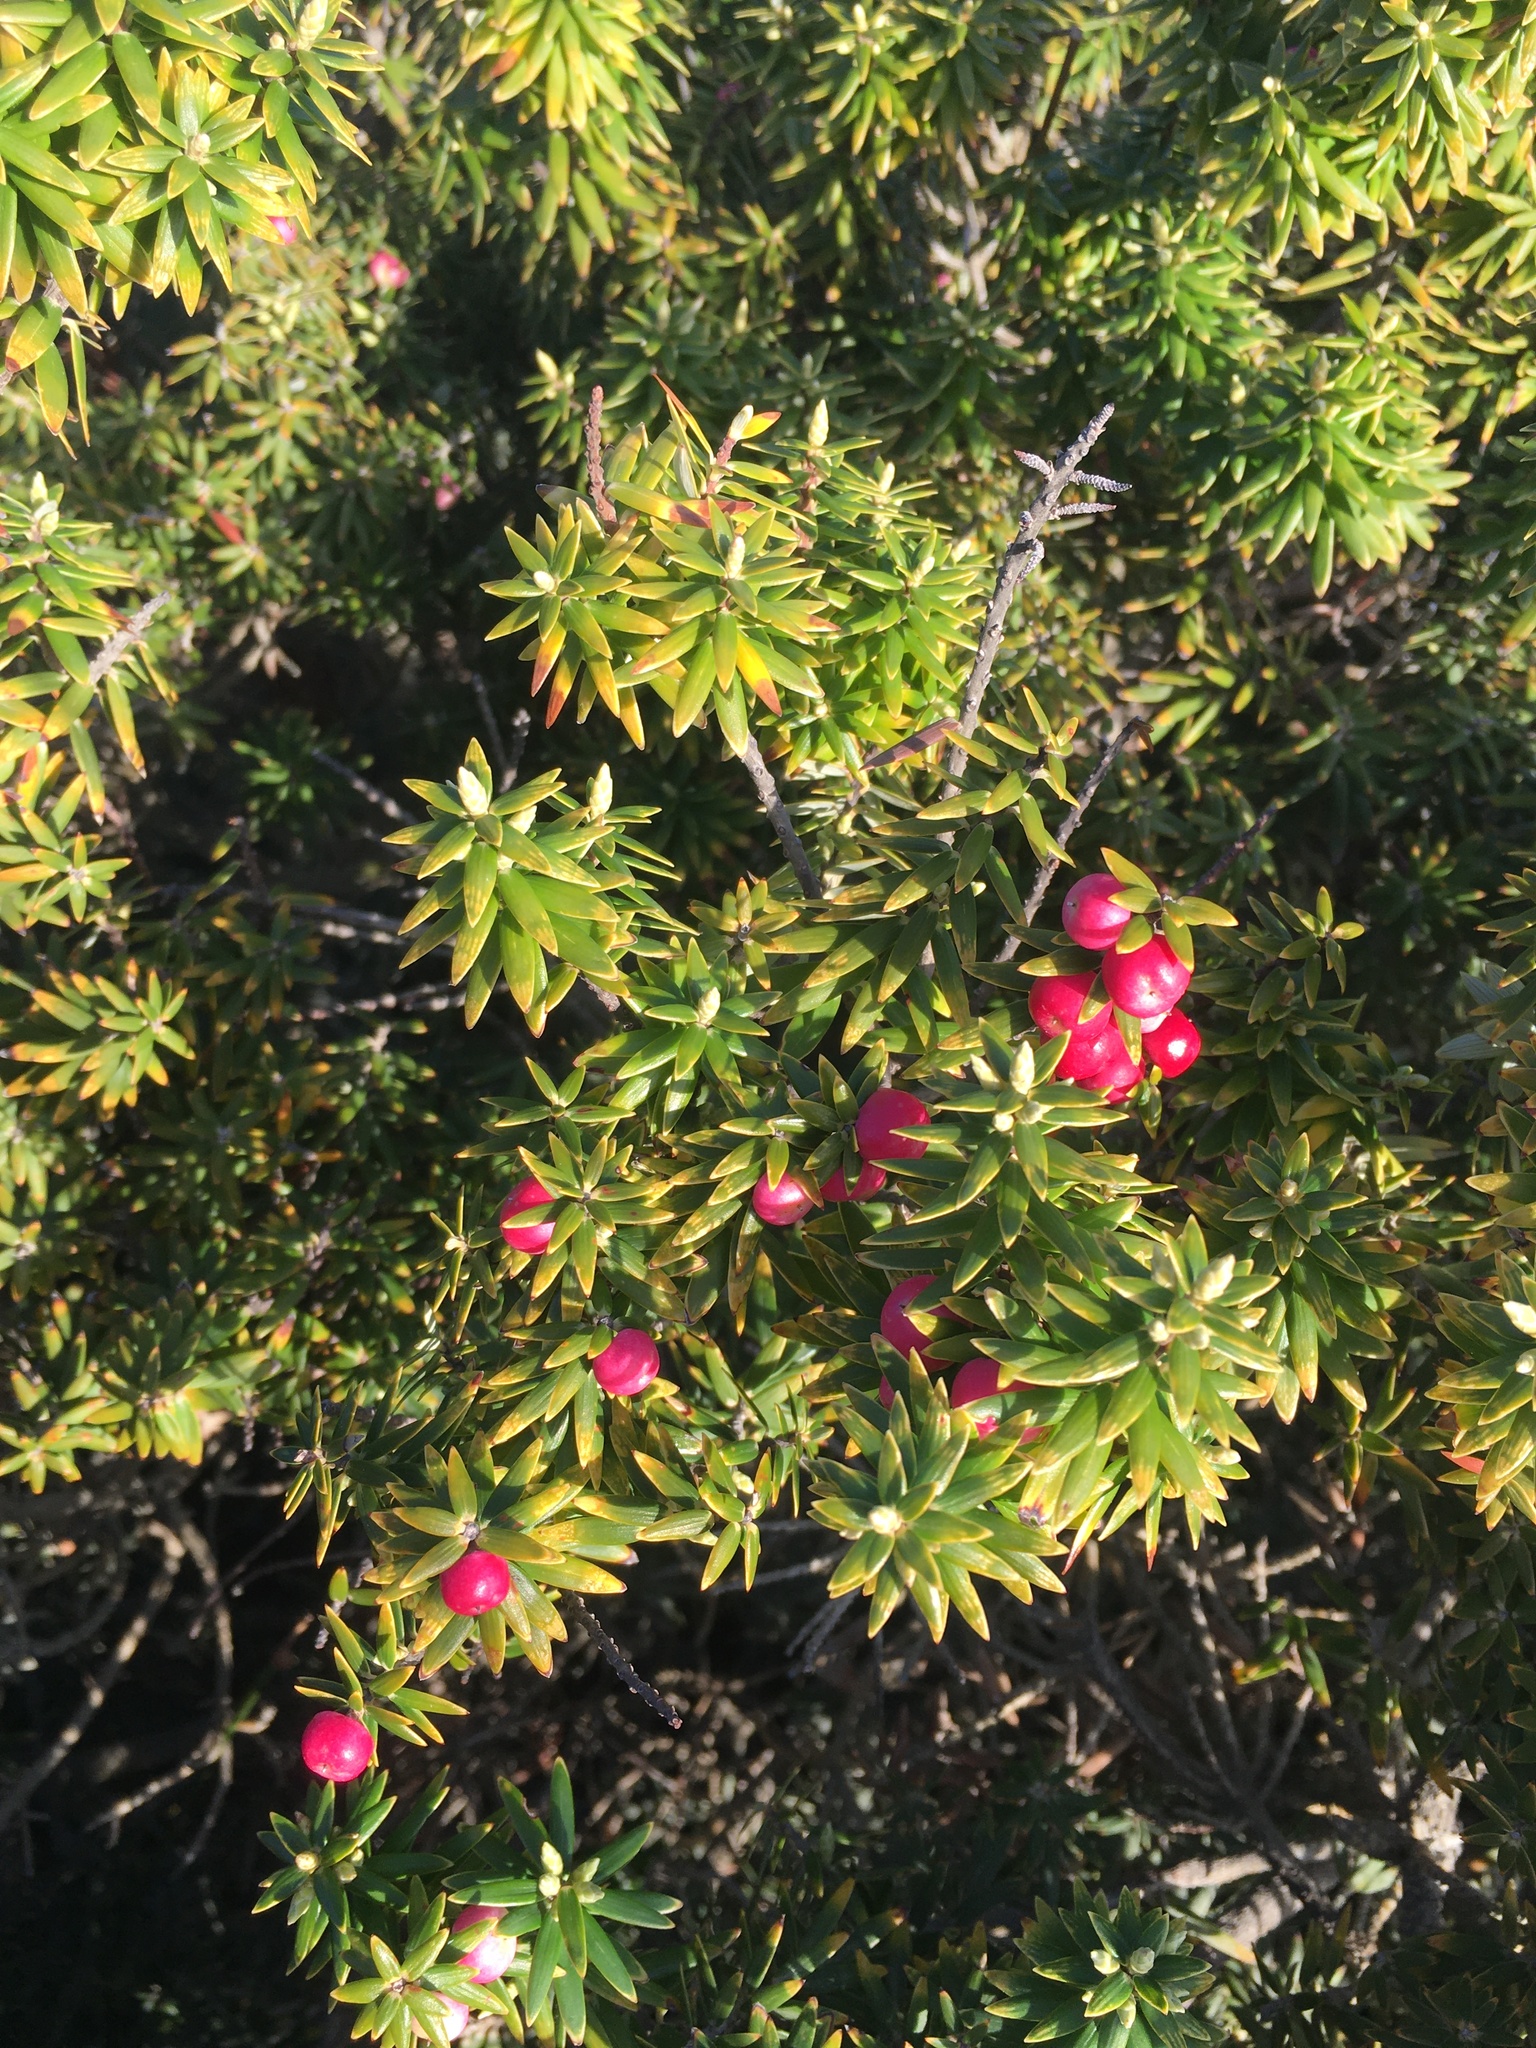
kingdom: Plantae
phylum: Tracheophyta
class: Magnoliopsida
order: Ericales
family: Ericaceae
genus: Leptecophylla
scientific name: Leptecophylla robusta
